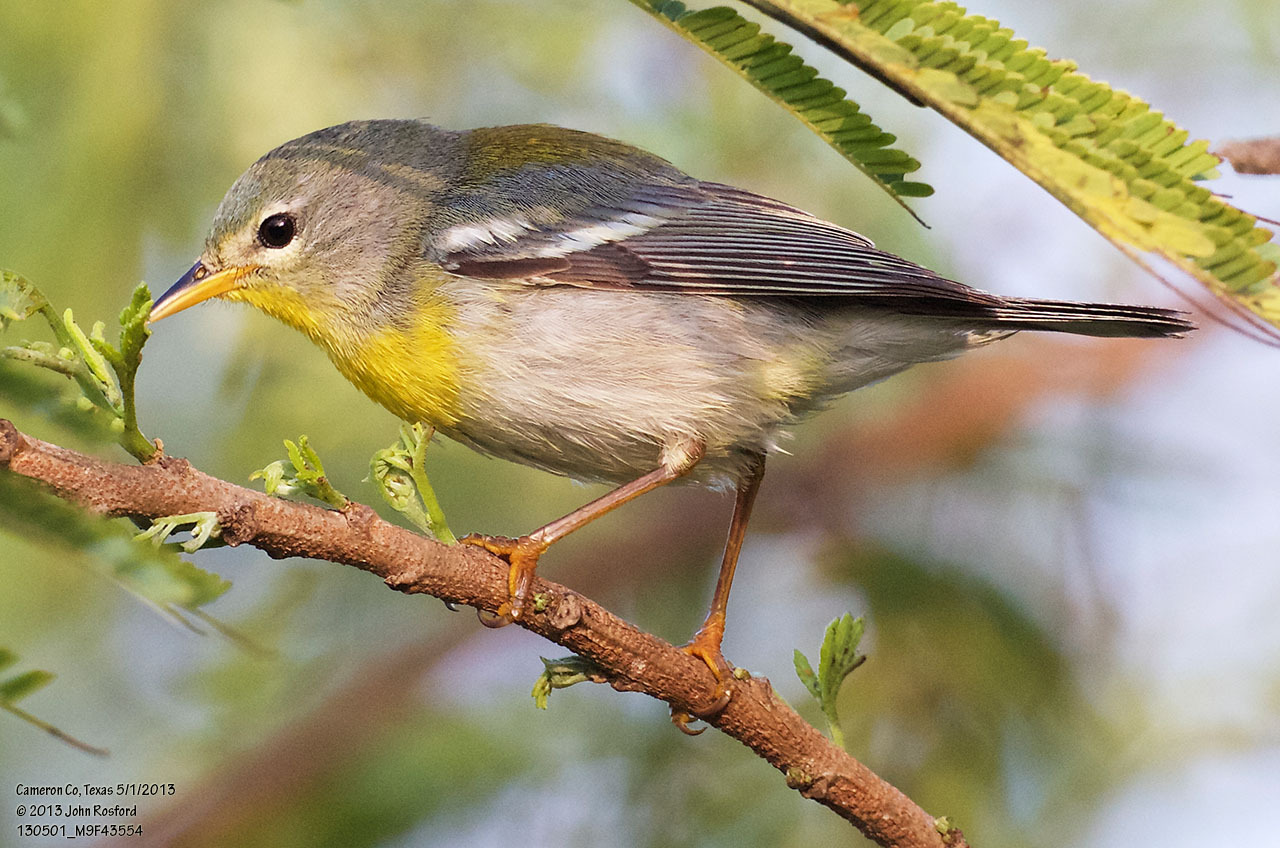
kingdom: Animalia
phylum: Chordata
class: Aves
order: Passeriformes
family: Parulidae
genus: Setophaga
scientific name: Setophaga americana
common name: Northern parula
